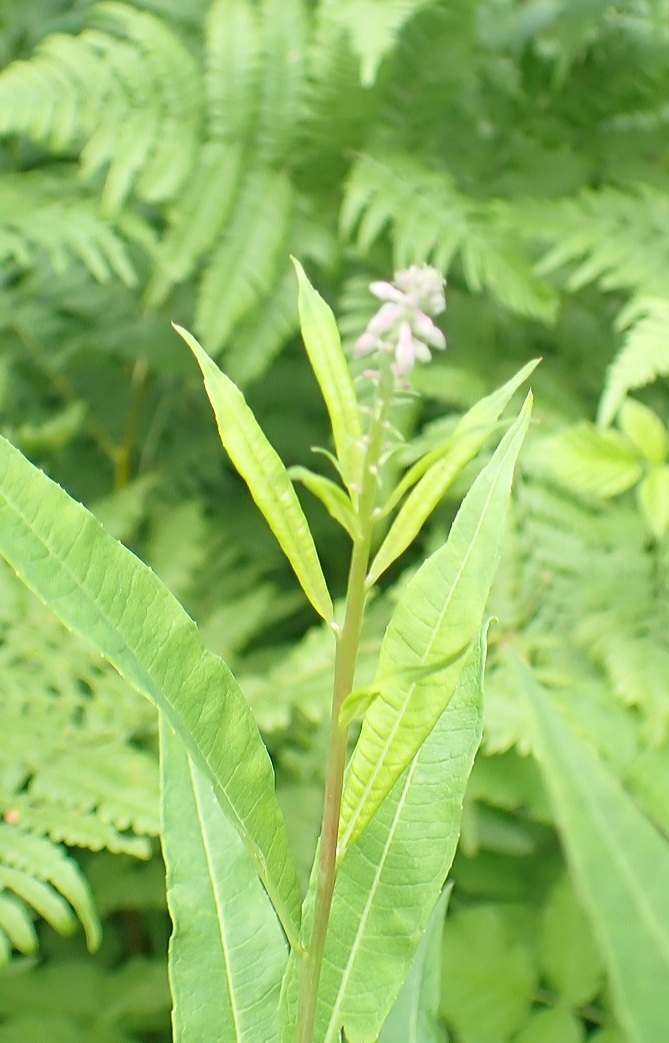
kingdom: Plantae
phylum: Tracheophyta
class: Magnoliopsida
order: Myrtales
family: Onagraceae
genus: Chamaenerion
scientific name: Chamaenerion angustifolium
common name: Fireweed
